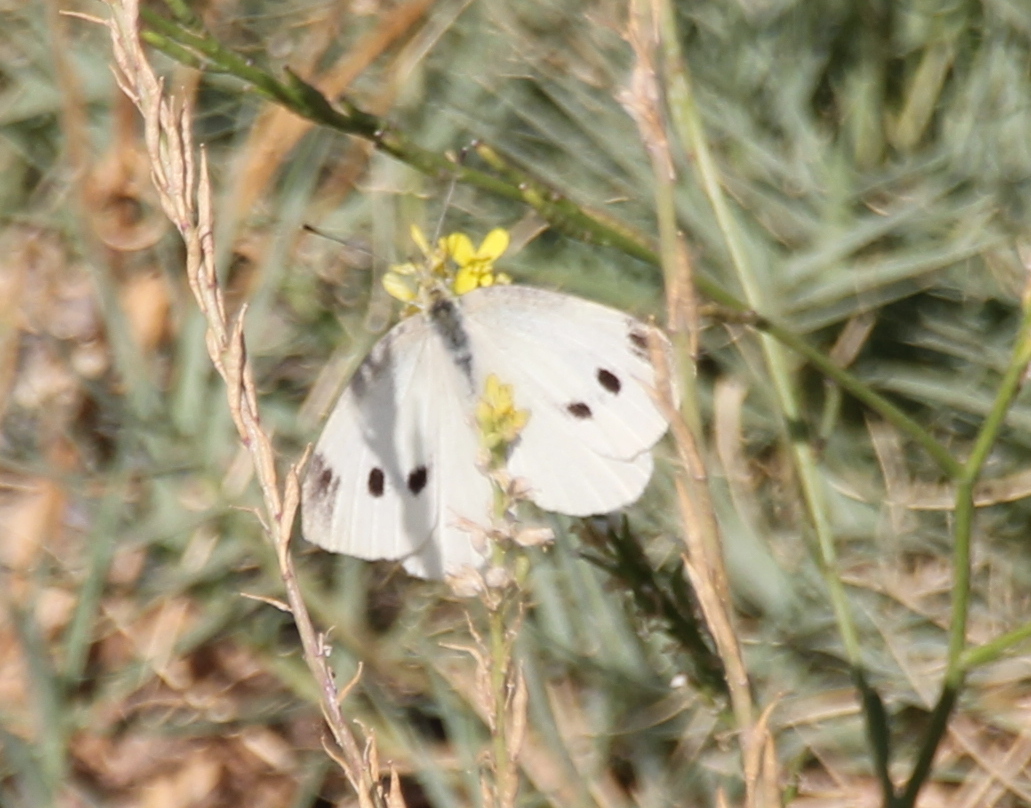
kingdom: Animalia
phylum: Arthropoda
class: Insecta
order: Lepidoptera
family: Pieridae
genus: Pieris
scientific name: Pieris rapae
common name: Small white
